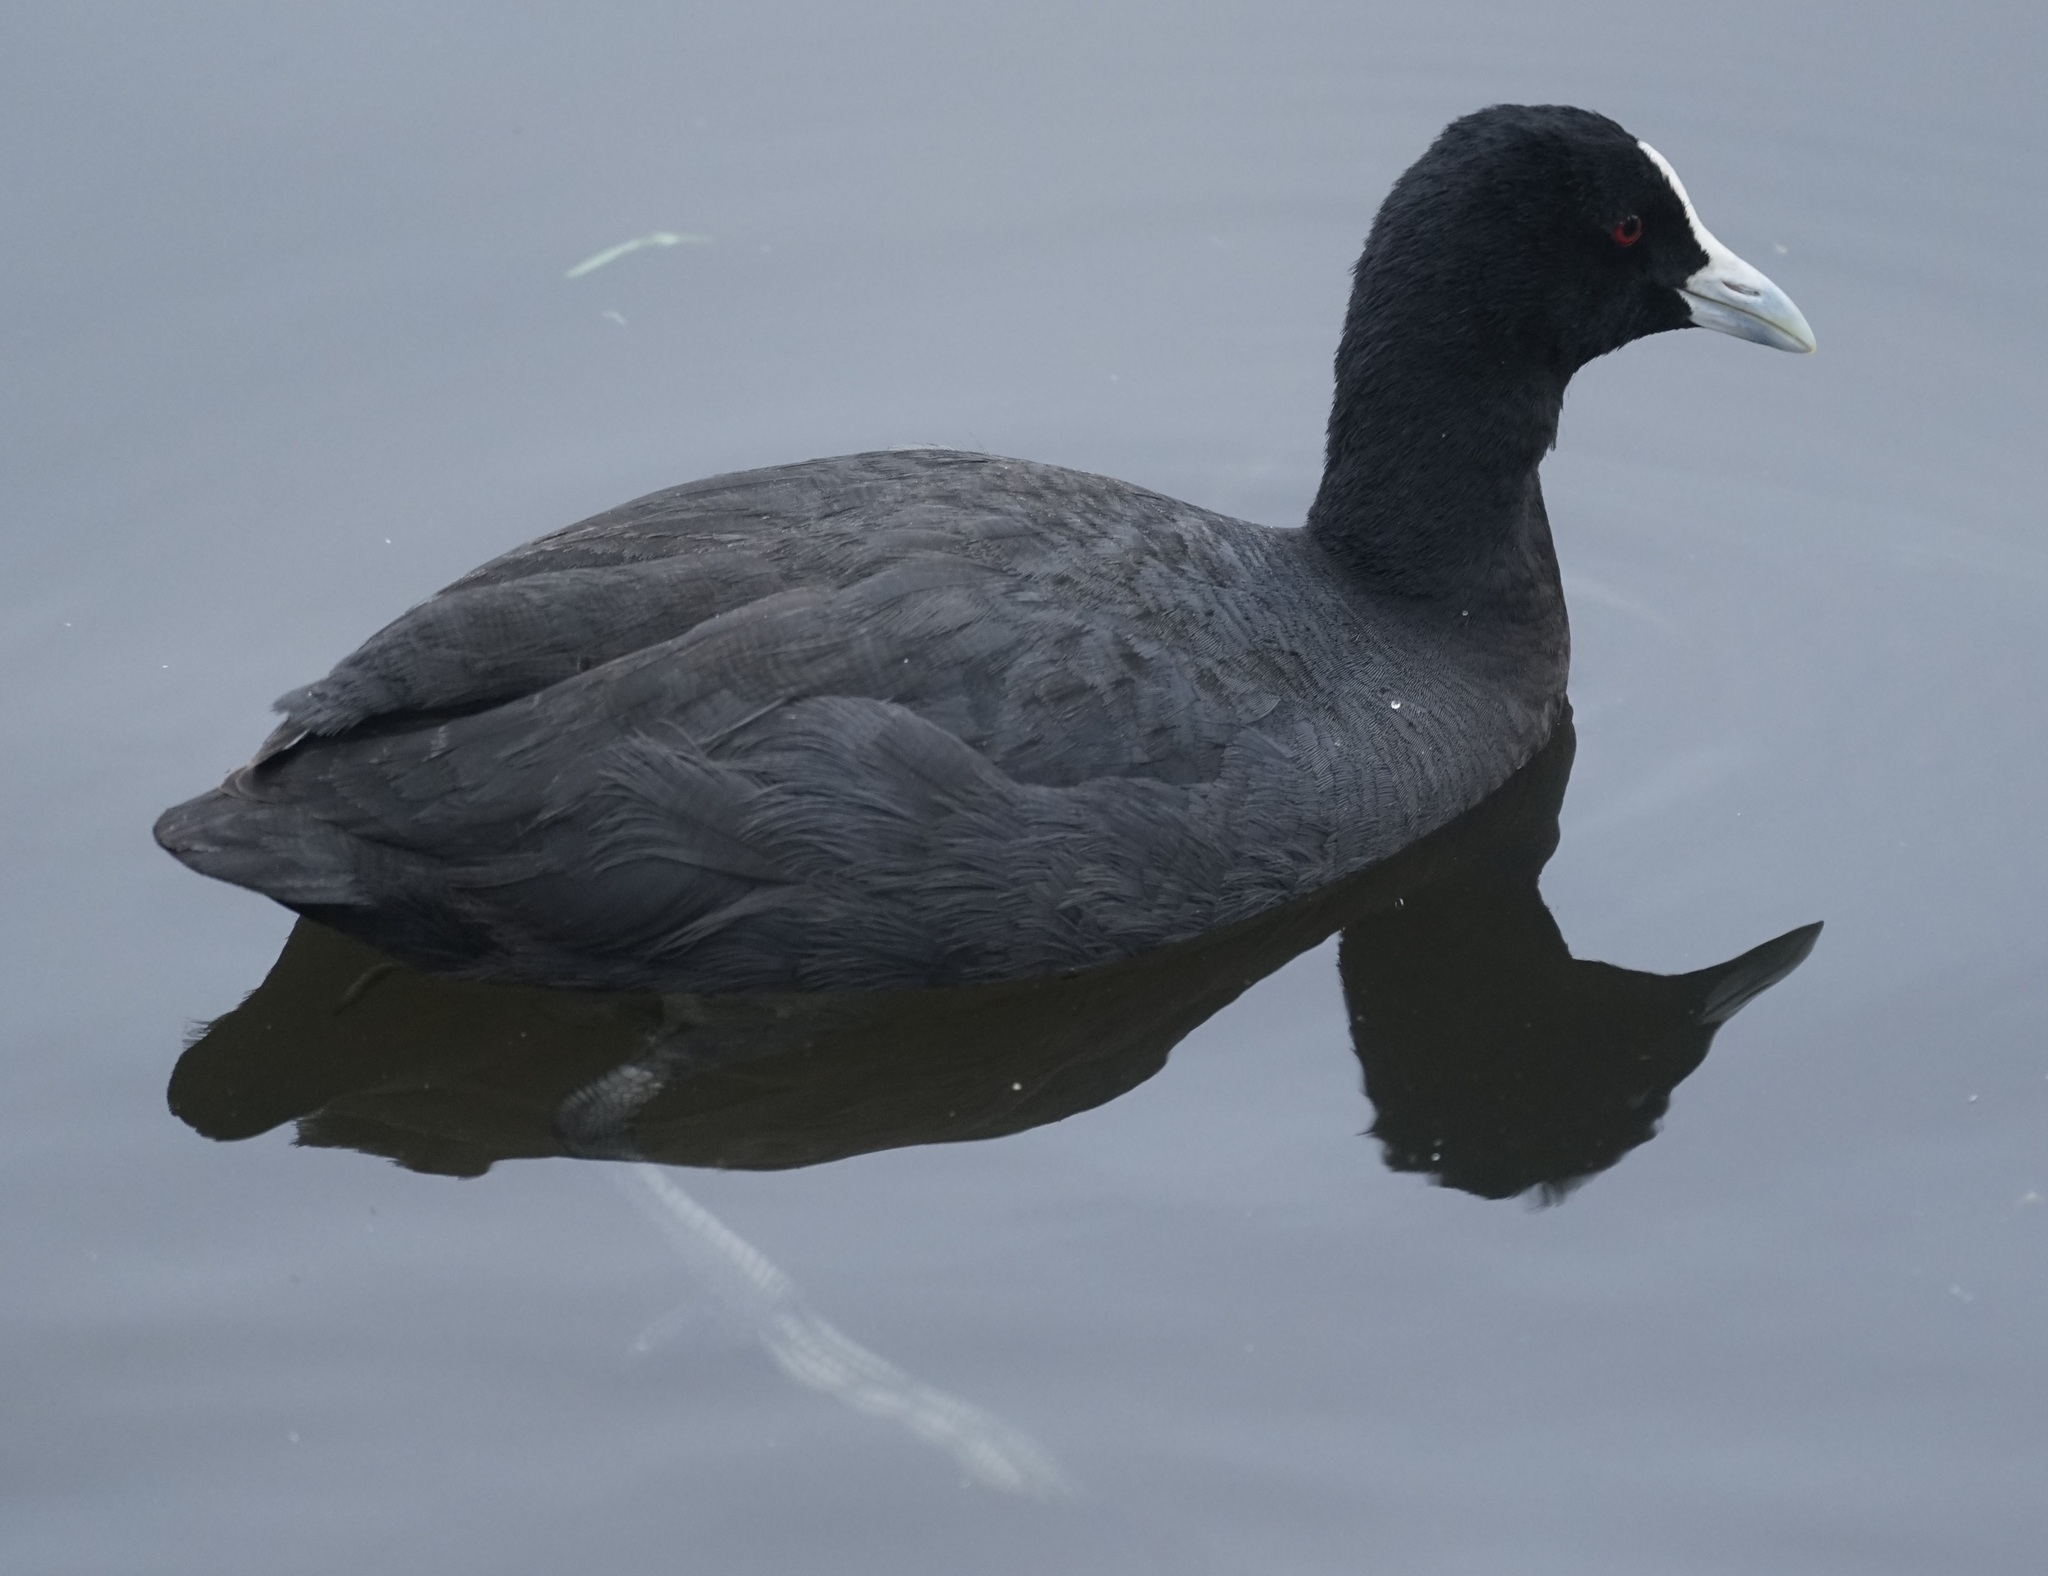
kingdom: Animalia
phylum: Chordata
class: Aves
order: Gruiformes
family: Rallidae
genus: Fulica
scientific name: Fulica atra
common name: Eurasian coot
